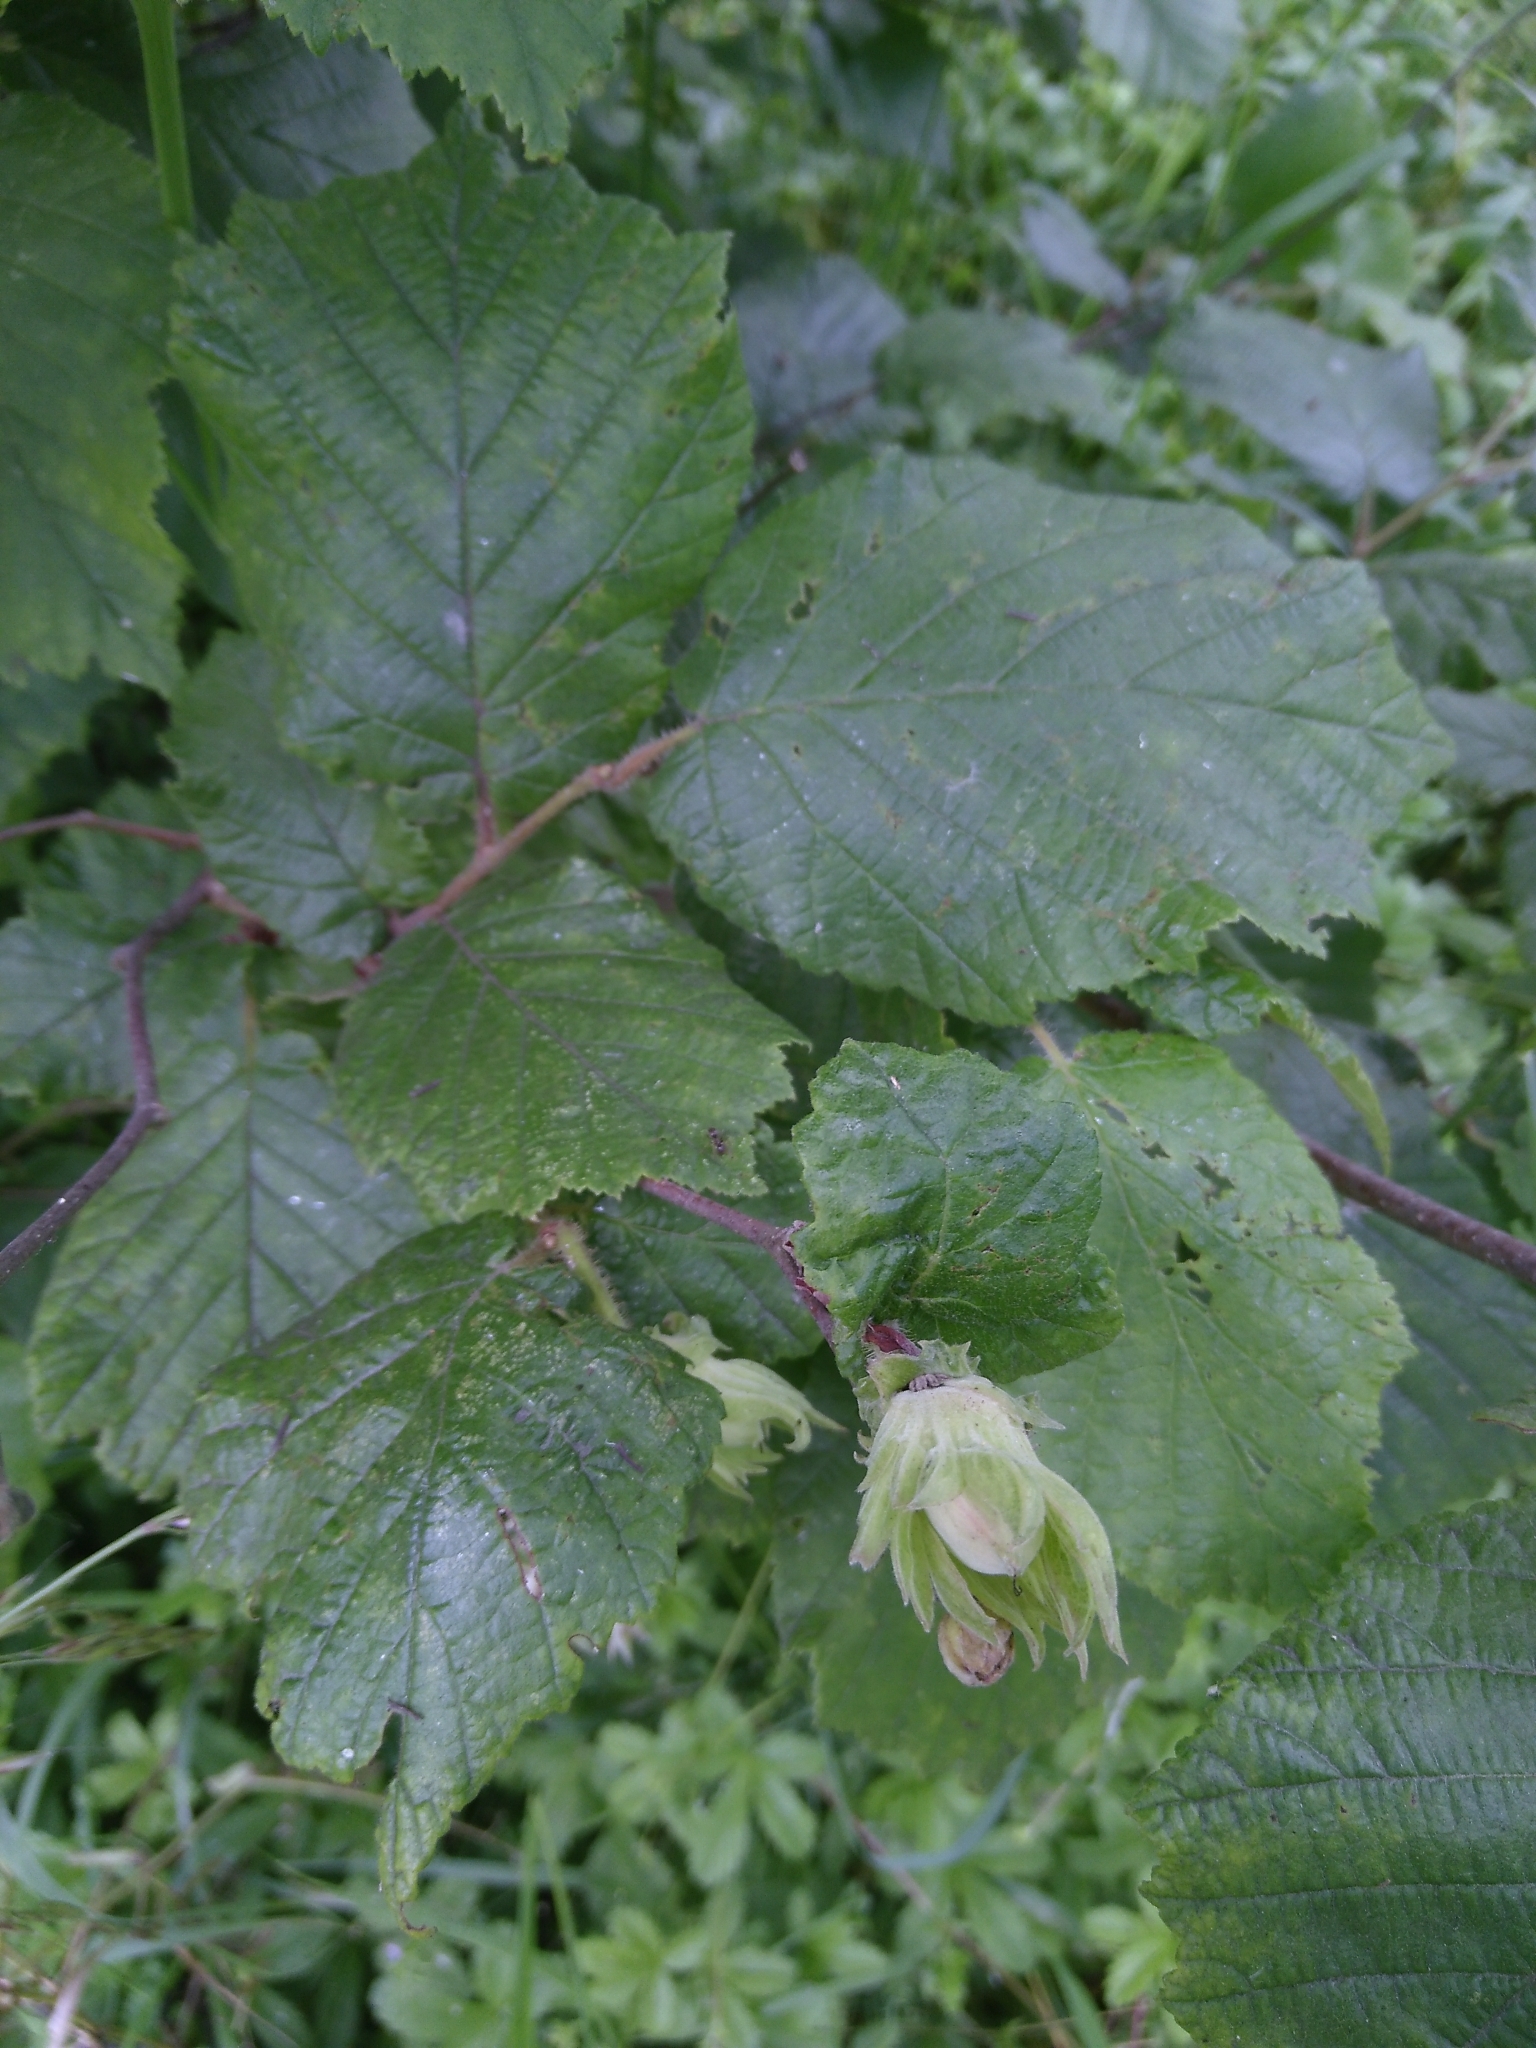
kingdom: Plantae
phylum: Tracheophyta
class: Magnoliopsida
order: Fagales
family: Betulaceae
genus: Corylus
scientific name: Corylus avellana
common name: European hazel
